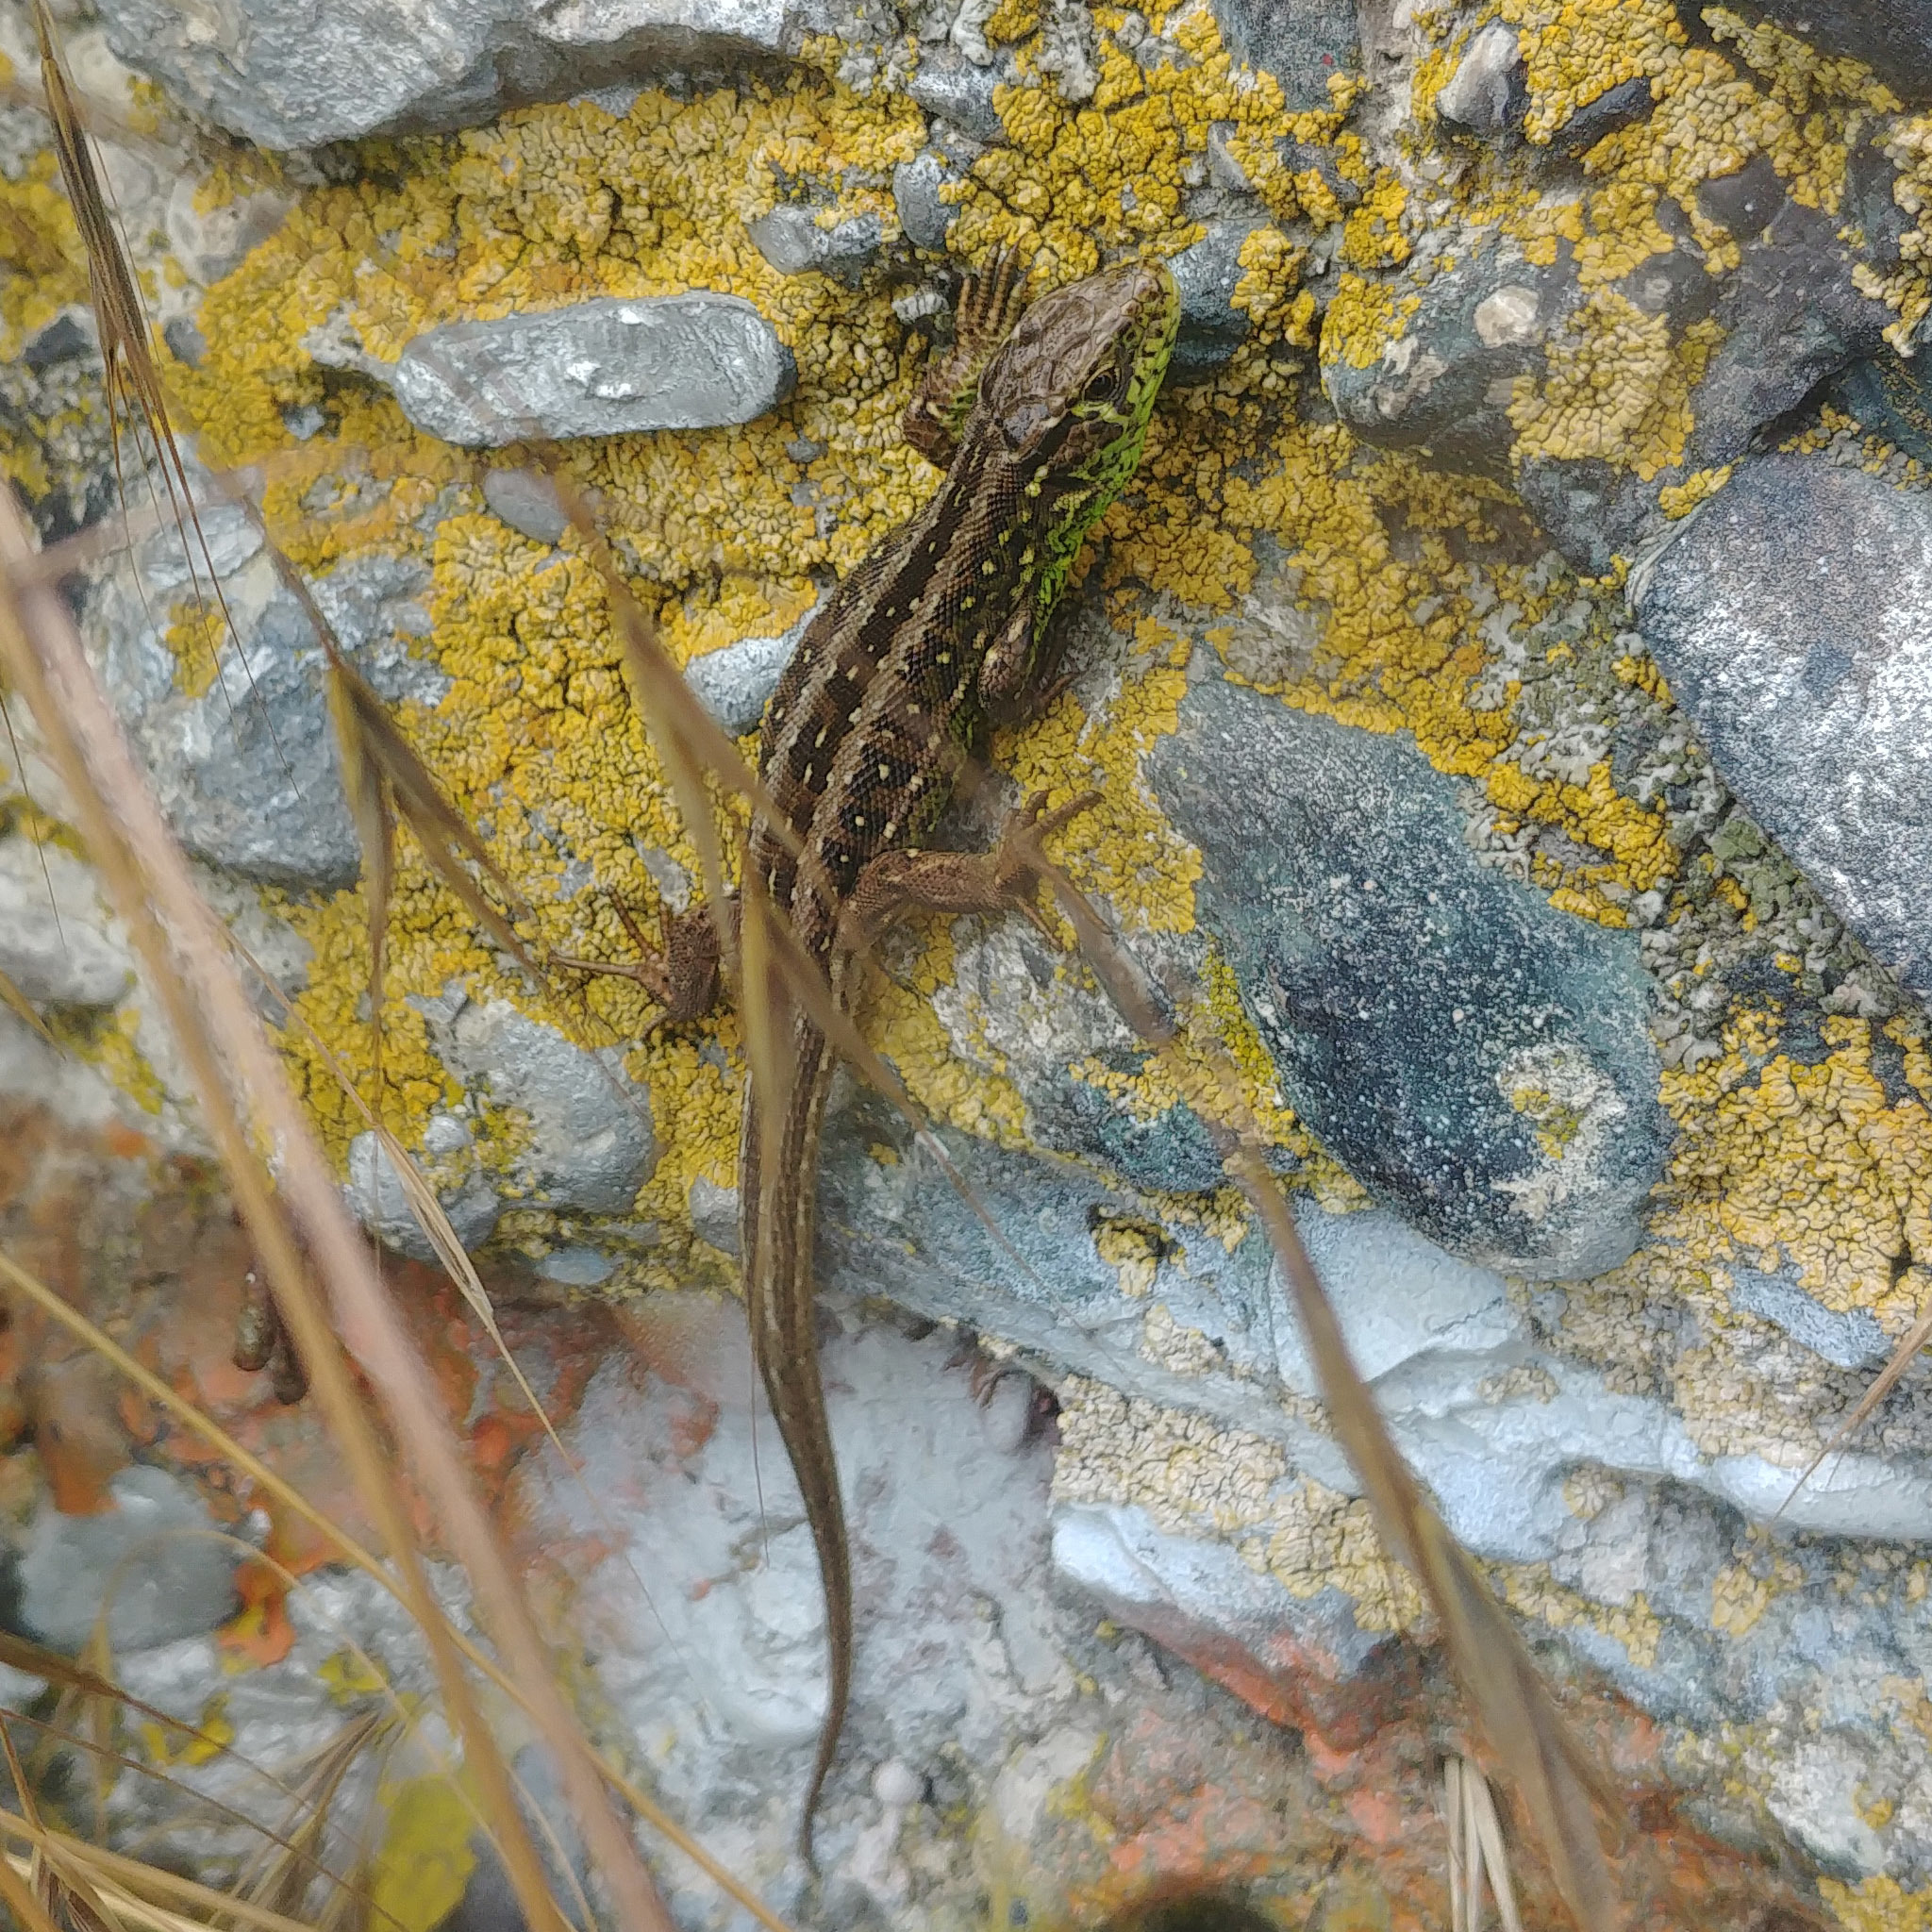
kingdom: Animalia
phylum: Chordata
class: Squamata
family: Lacertidae
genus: Lacerta
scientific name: Lacerta agilis
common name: Sand lizard
